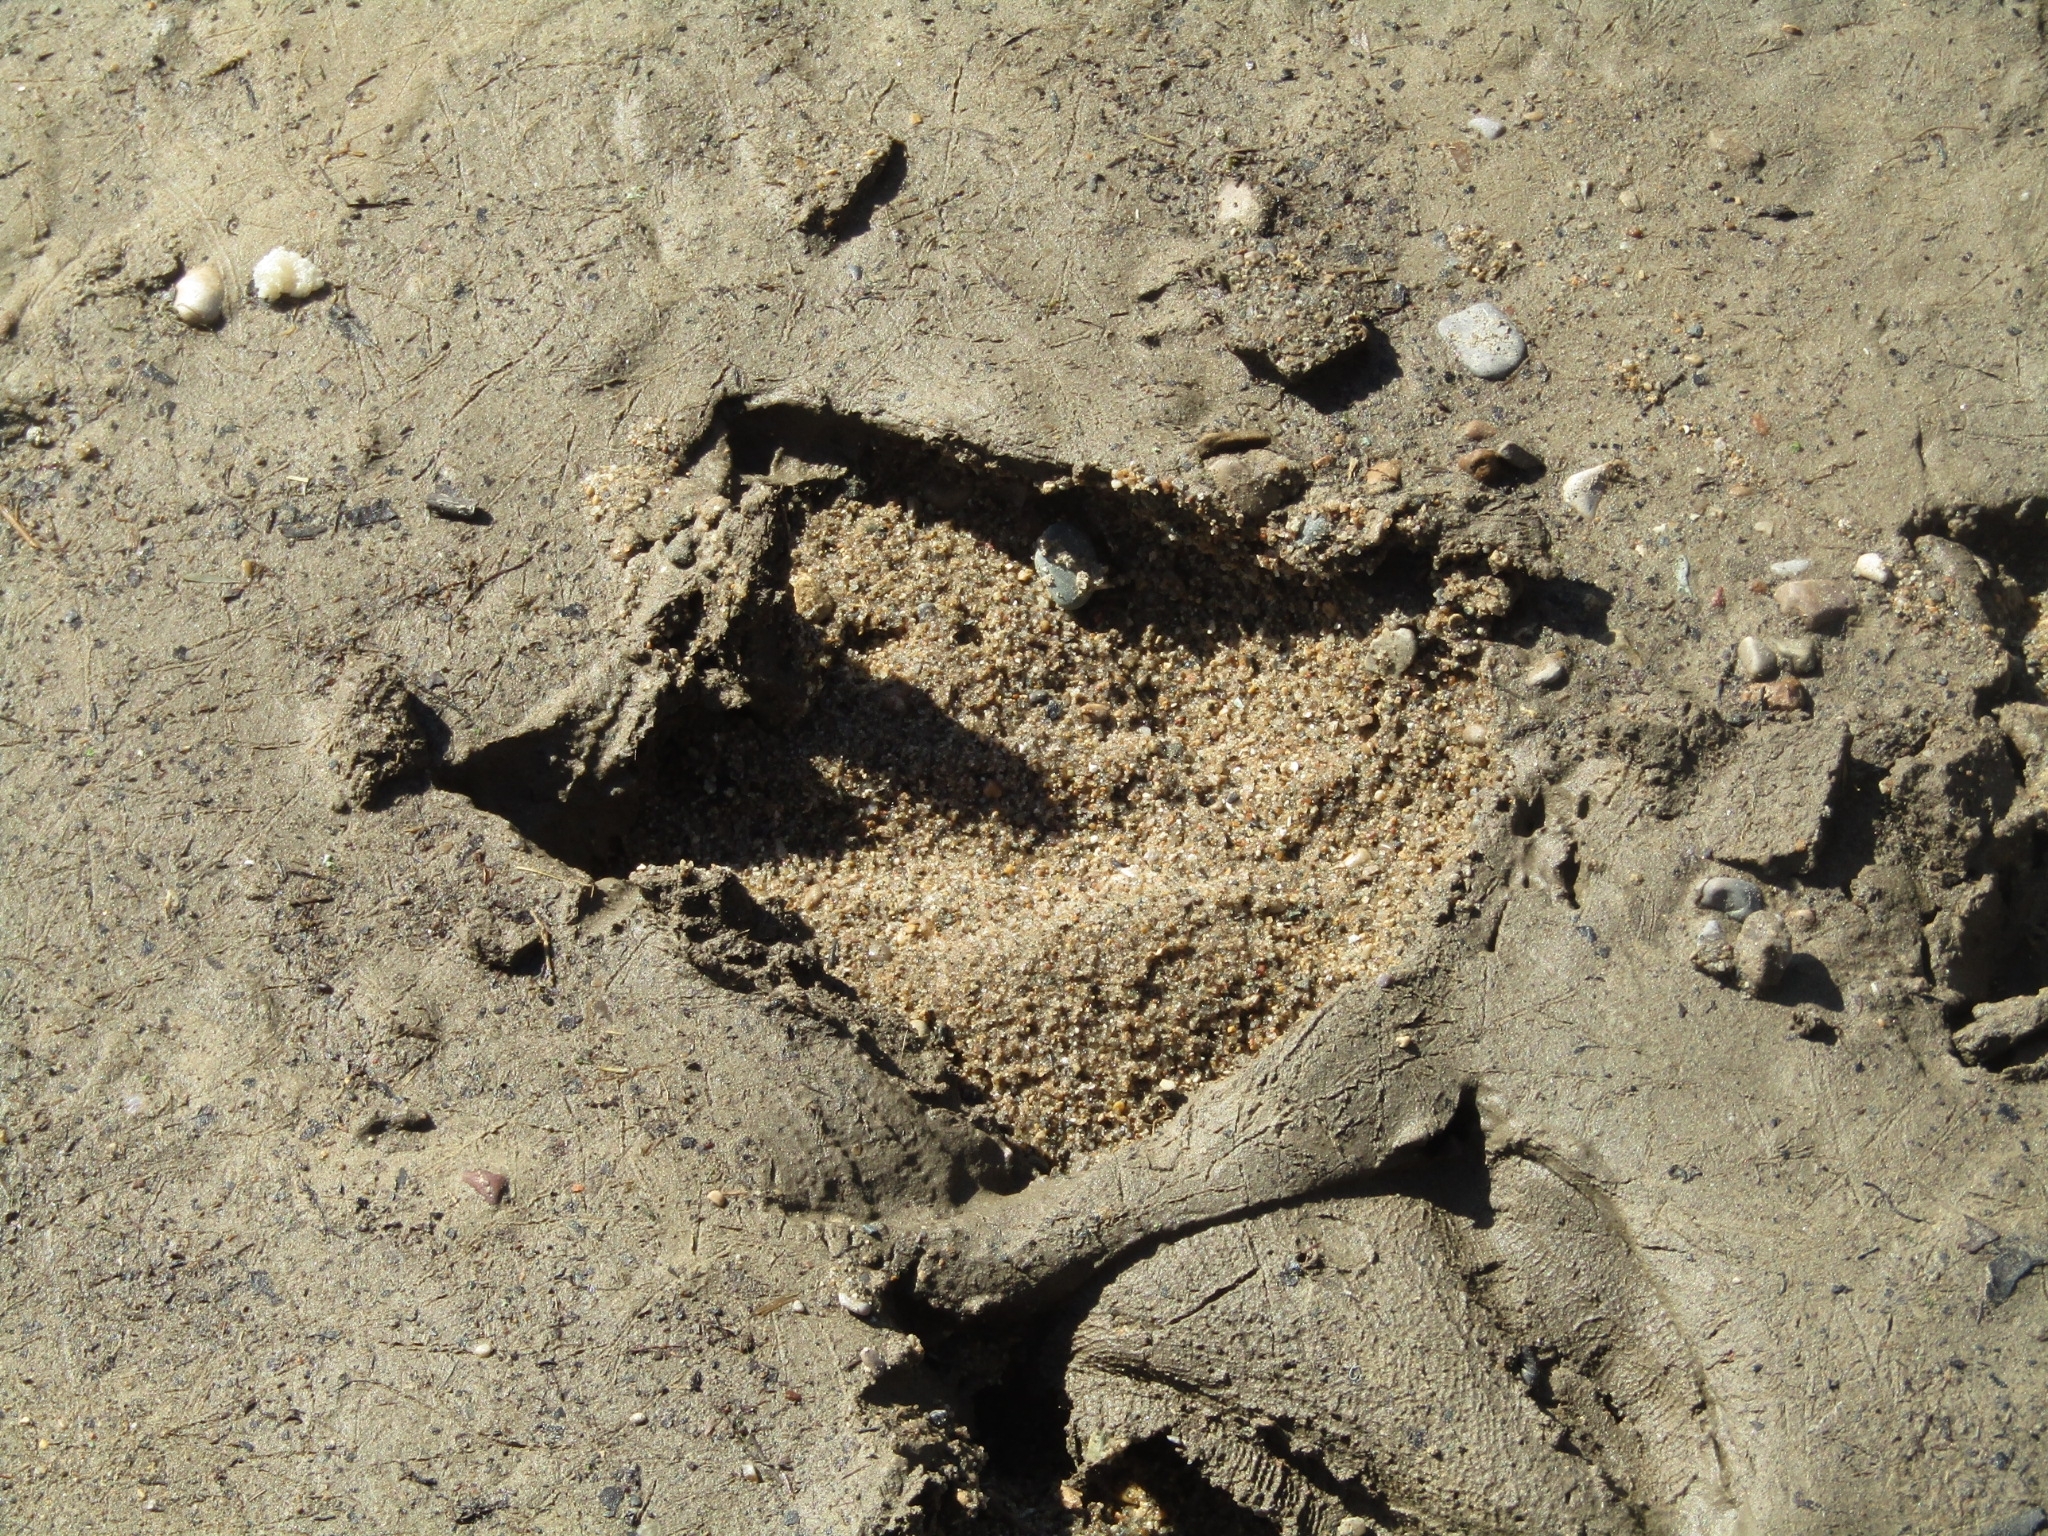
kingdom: Animalia
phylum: Chordata
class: Aves
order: Pelecaniformes
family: Ardeidae
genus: Ardea
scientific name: Ardea herodias
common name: Great blue heron
